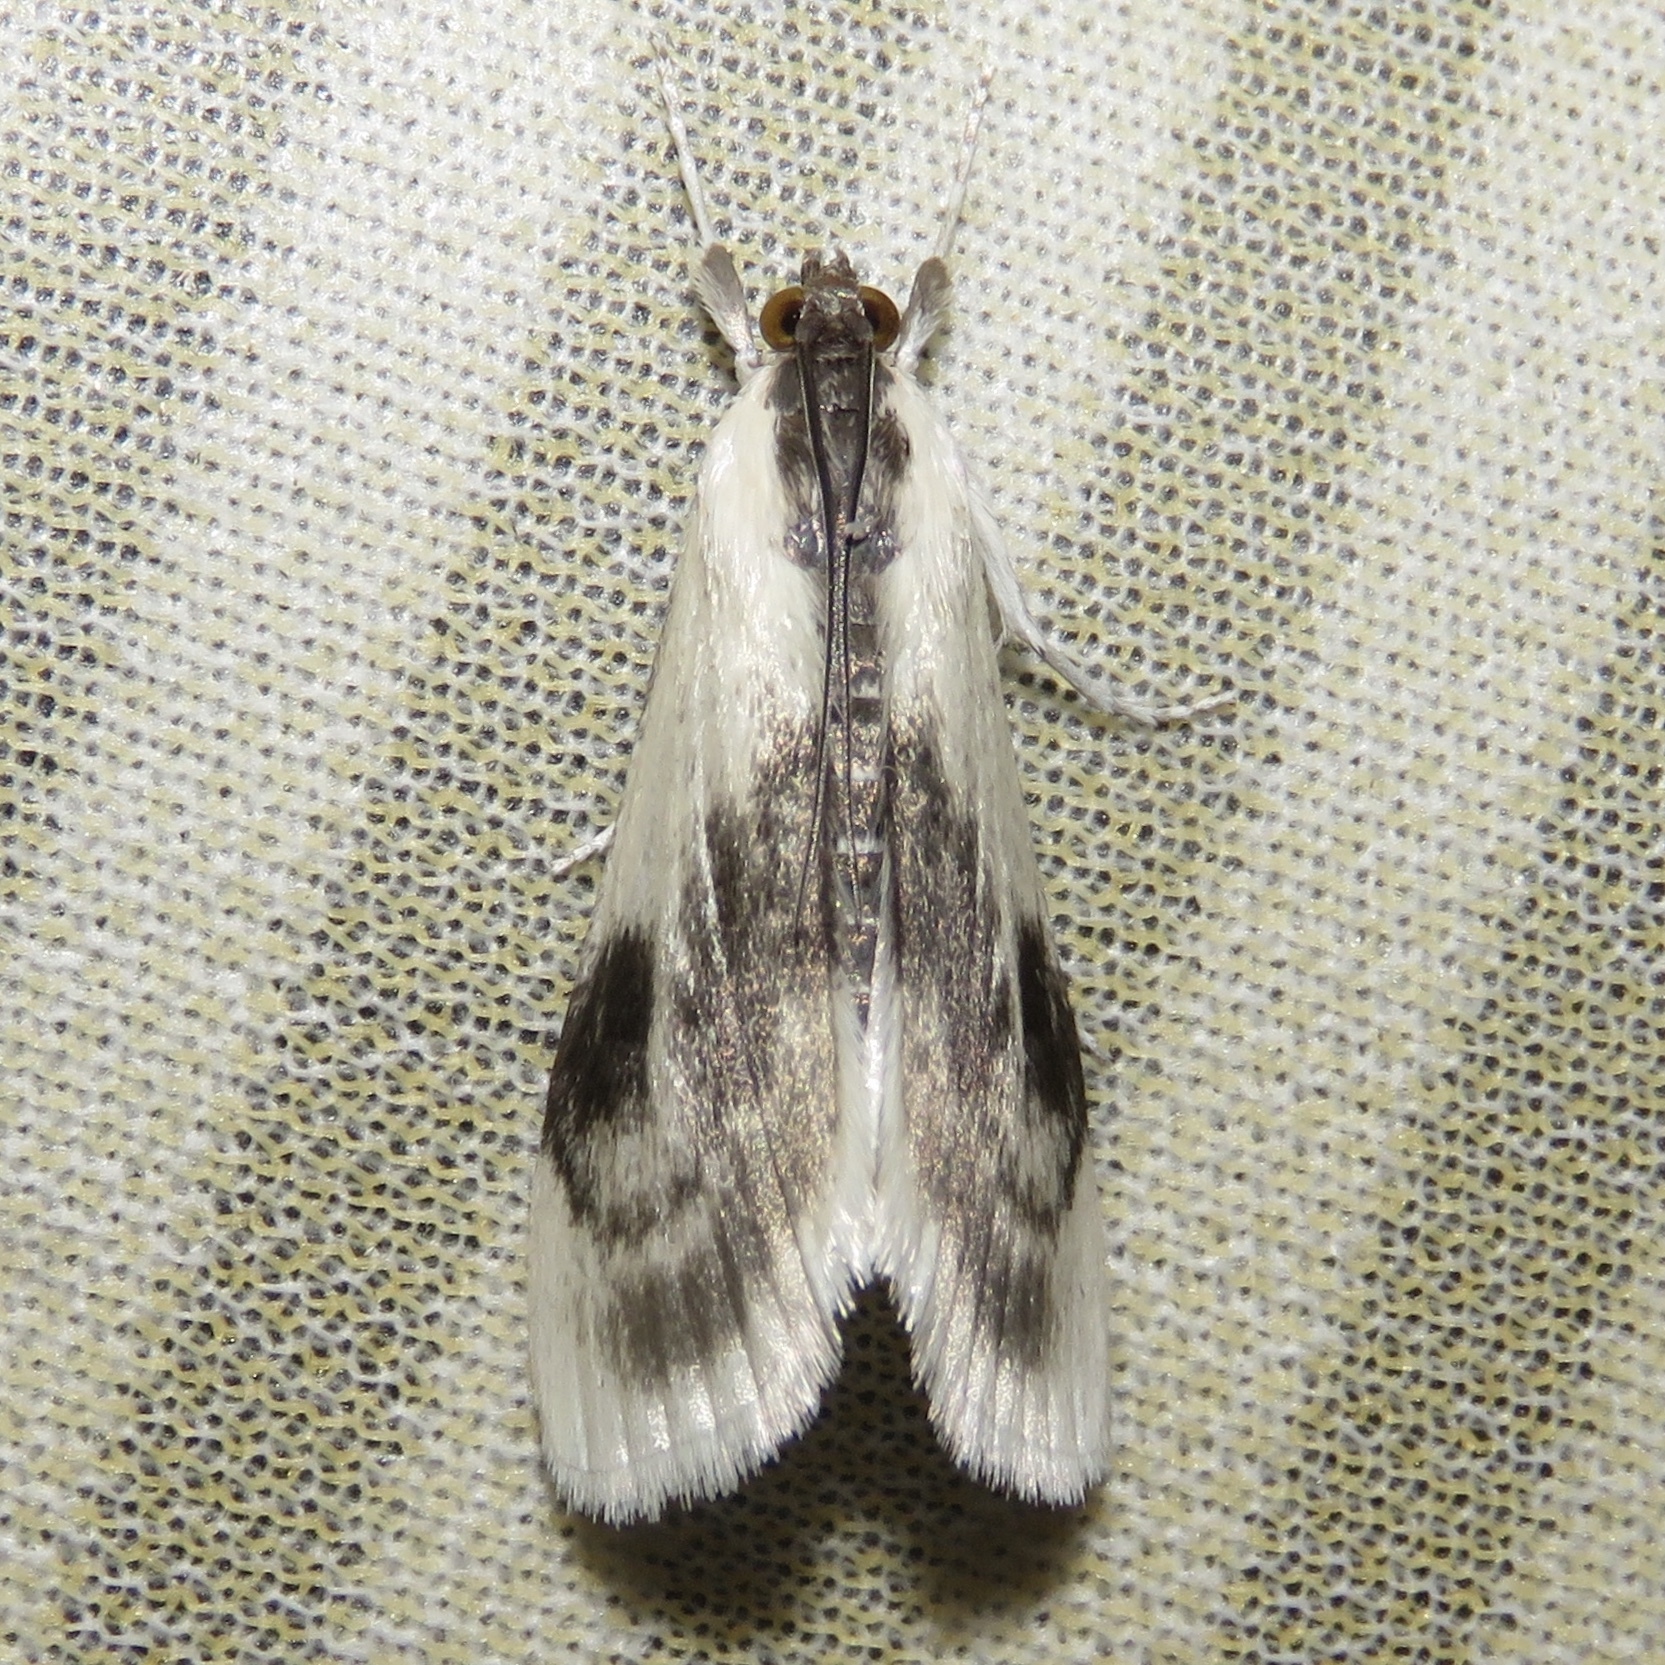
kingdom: Animalia
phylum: Arthropoda
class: Insecta
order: Lepidoptera
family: Crambidae
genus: Cliniodes
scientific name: Cliniodes
